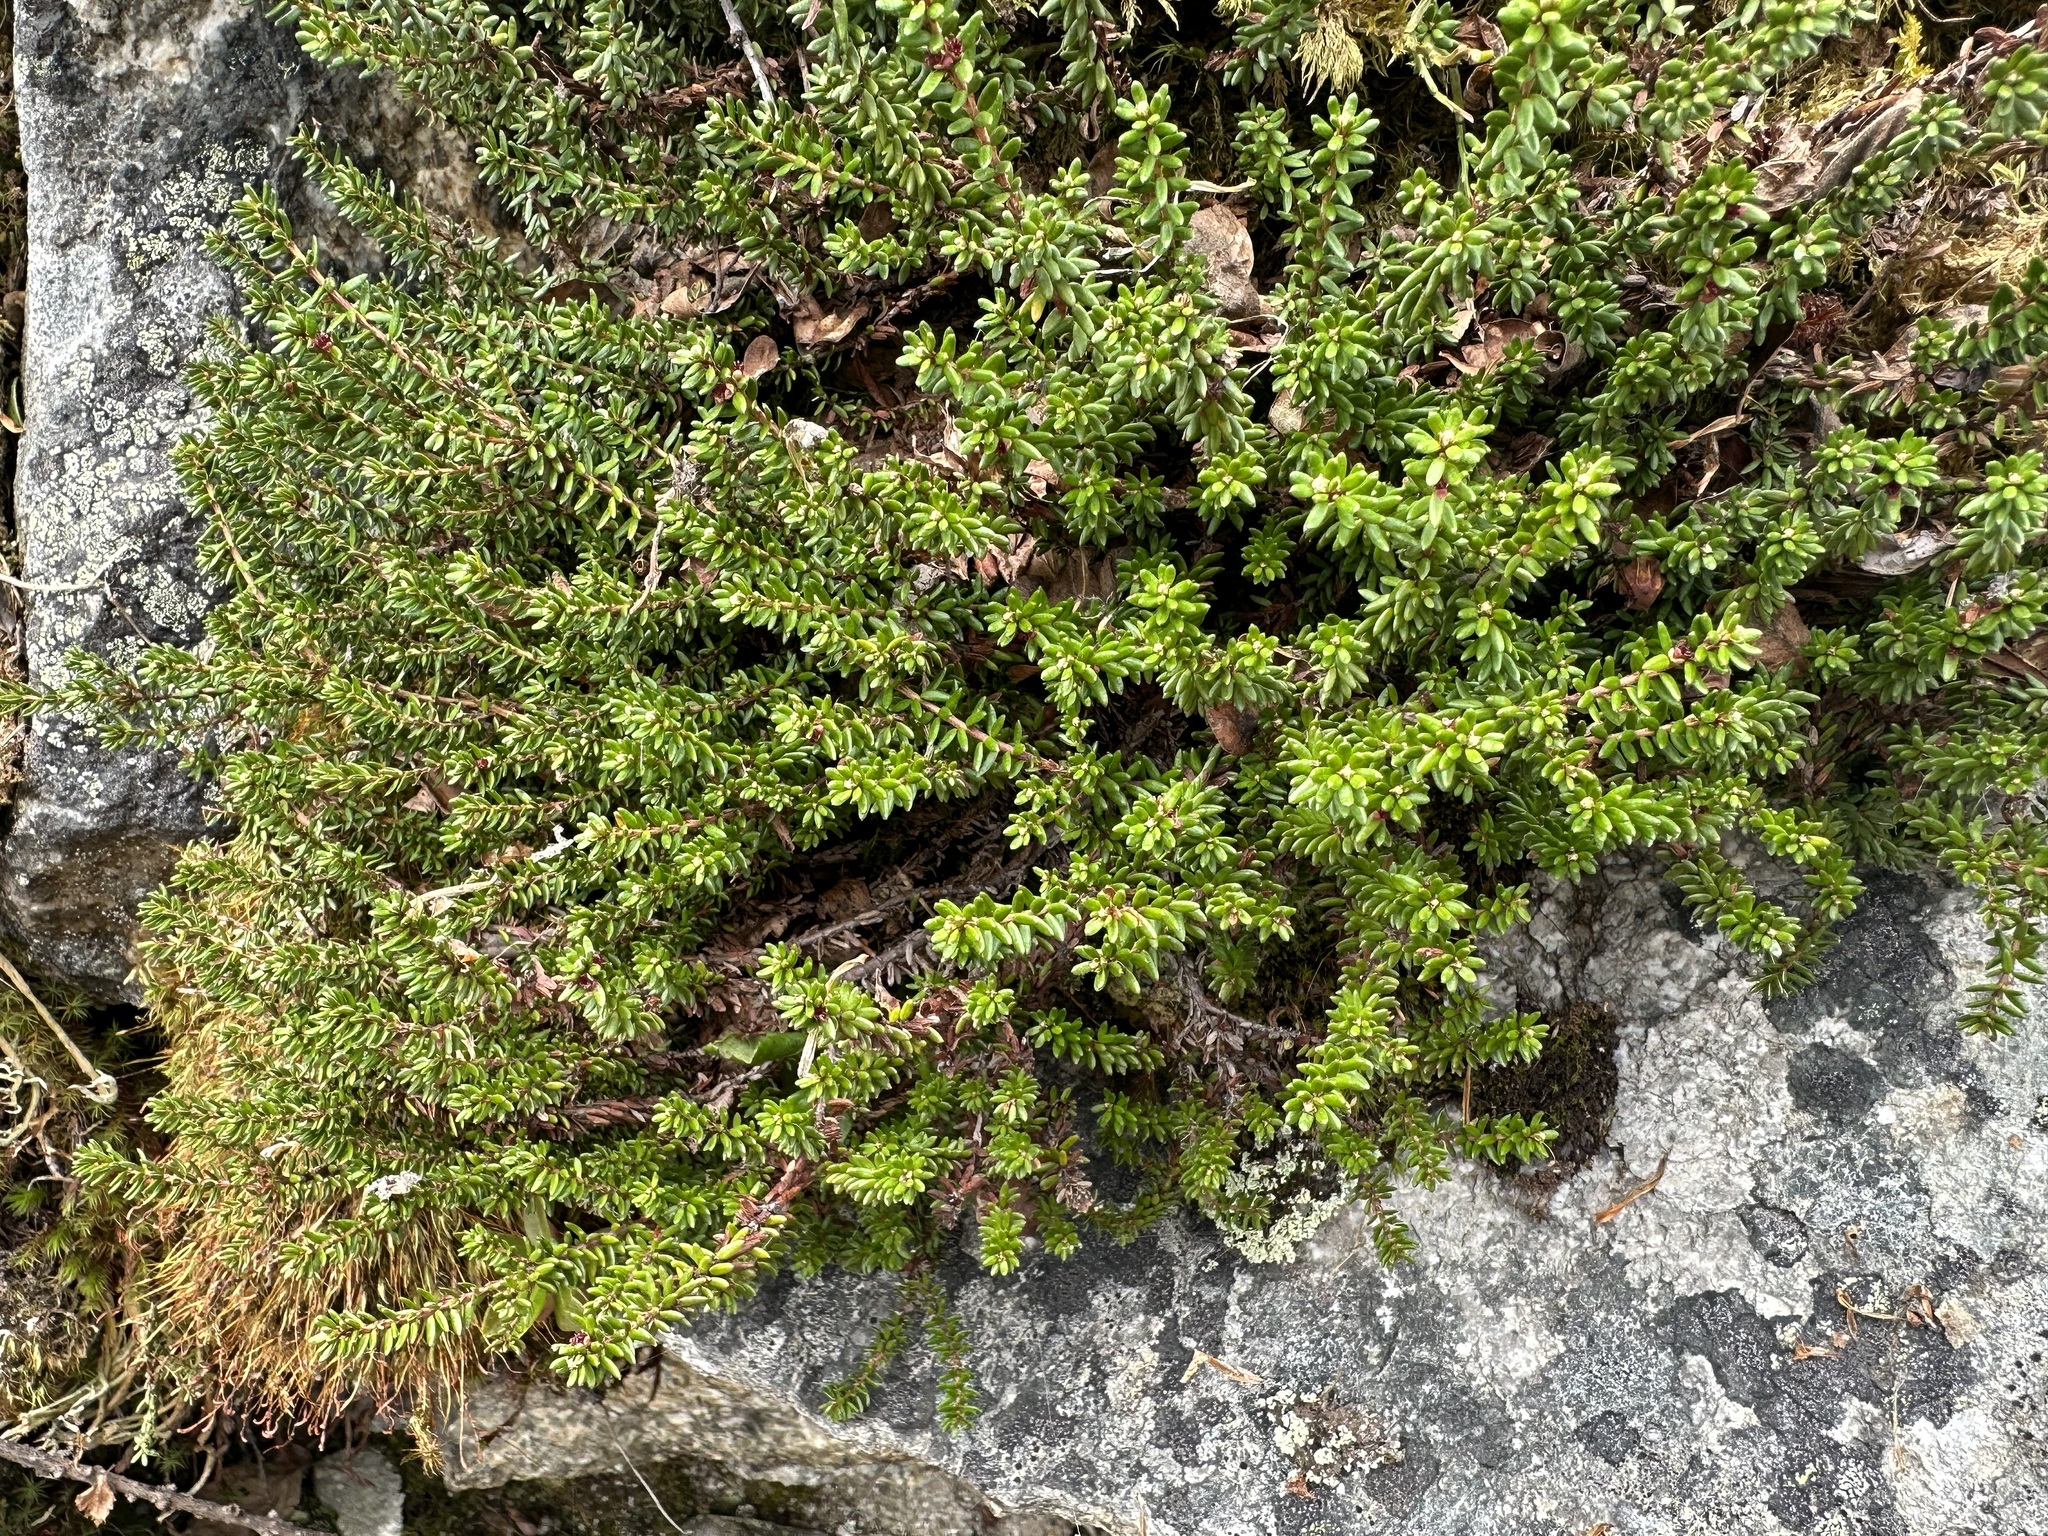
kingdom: Plantae
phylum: Tracheophyta
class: Magnoliopsida
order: Ericales
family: Ericaceae
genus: Empetrum
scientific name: Empetrum nigrum
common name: Black crowberry
